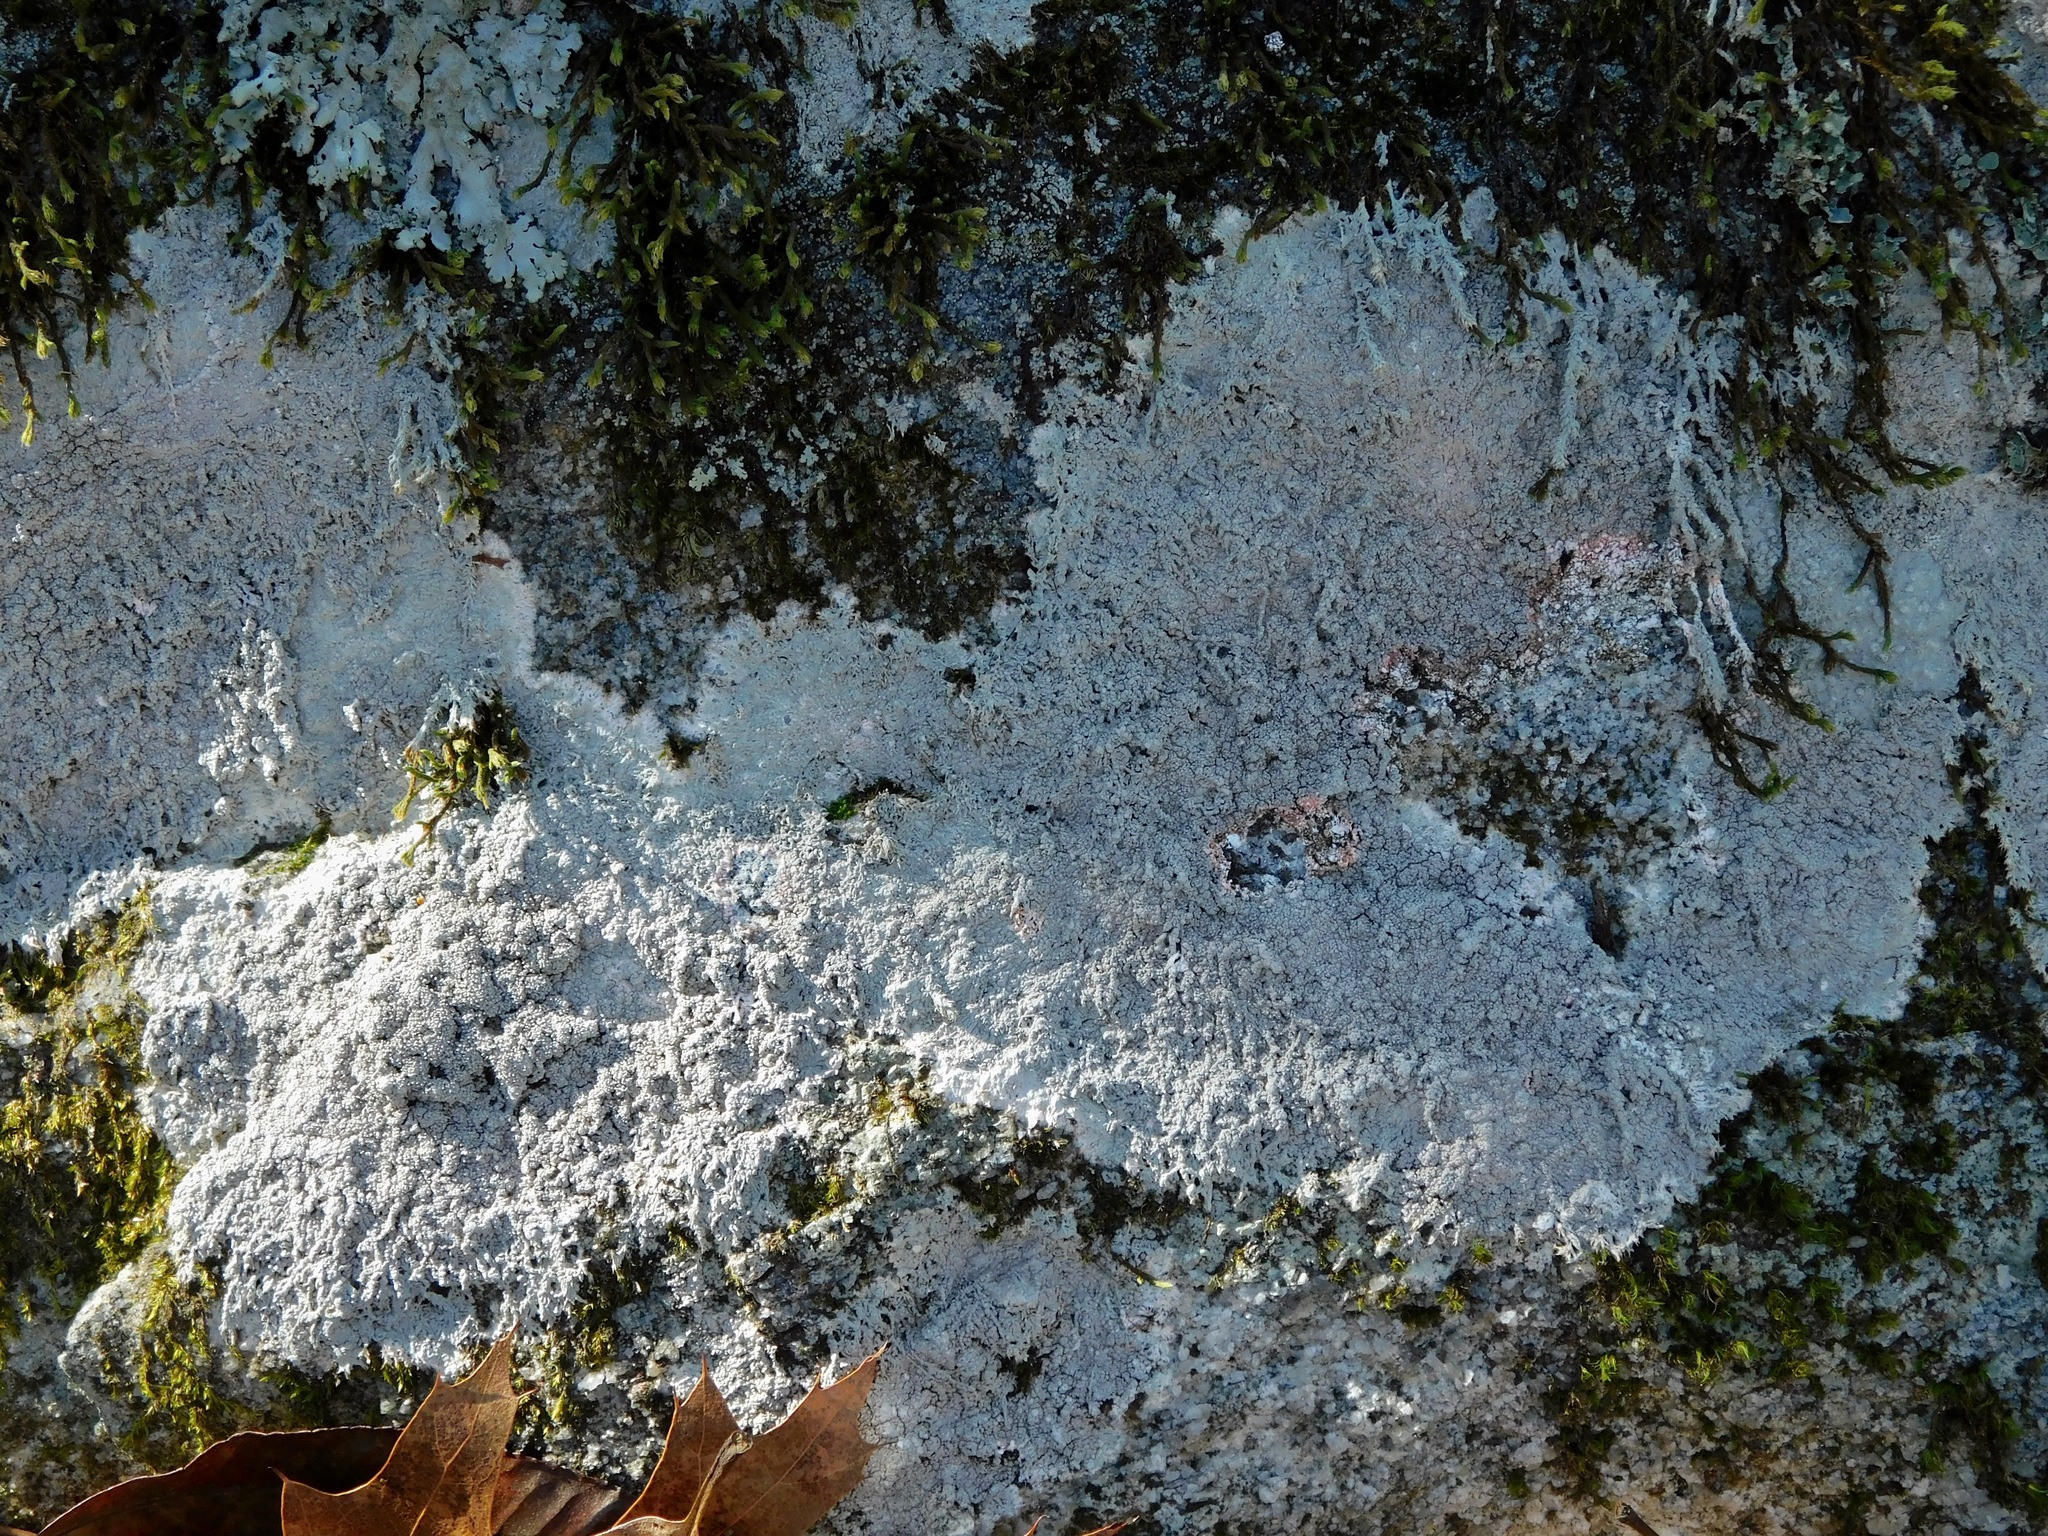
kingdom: Fungi
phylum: Ascomycota
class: Lecanoromycetes
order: Pertusariales
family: Ochrolechiaceae
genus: Ochrolechia
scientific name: Ochrolechia yasudae
